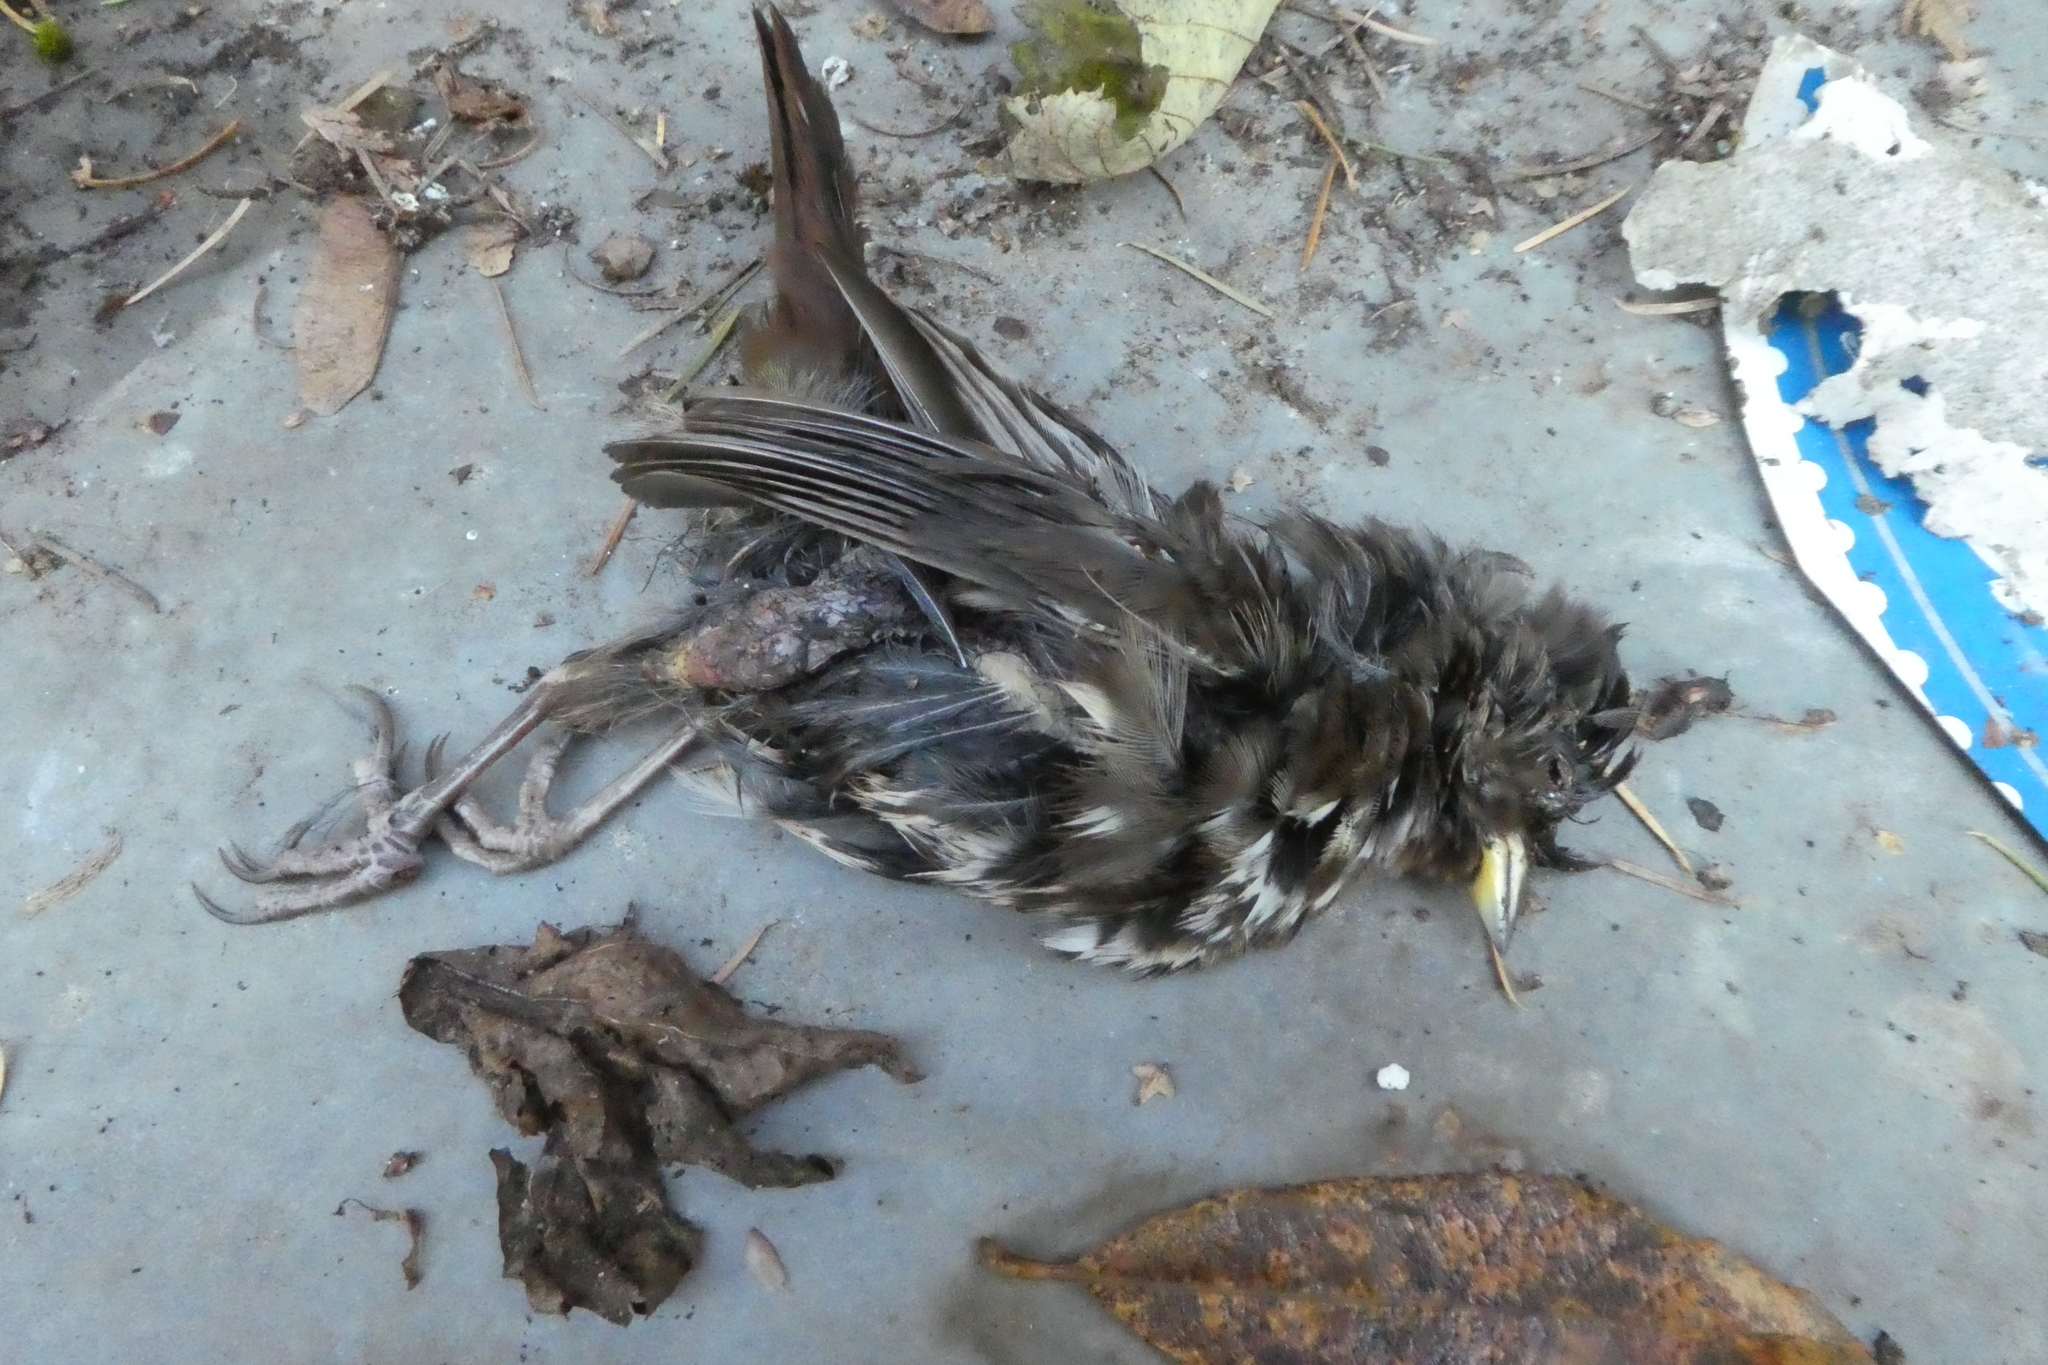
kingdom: Animalia
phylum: Chordata
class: Aves
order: Passeriformes
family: Passerellidae
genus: Passerella
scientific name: Passerella iliaca
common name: Fox sparrow
